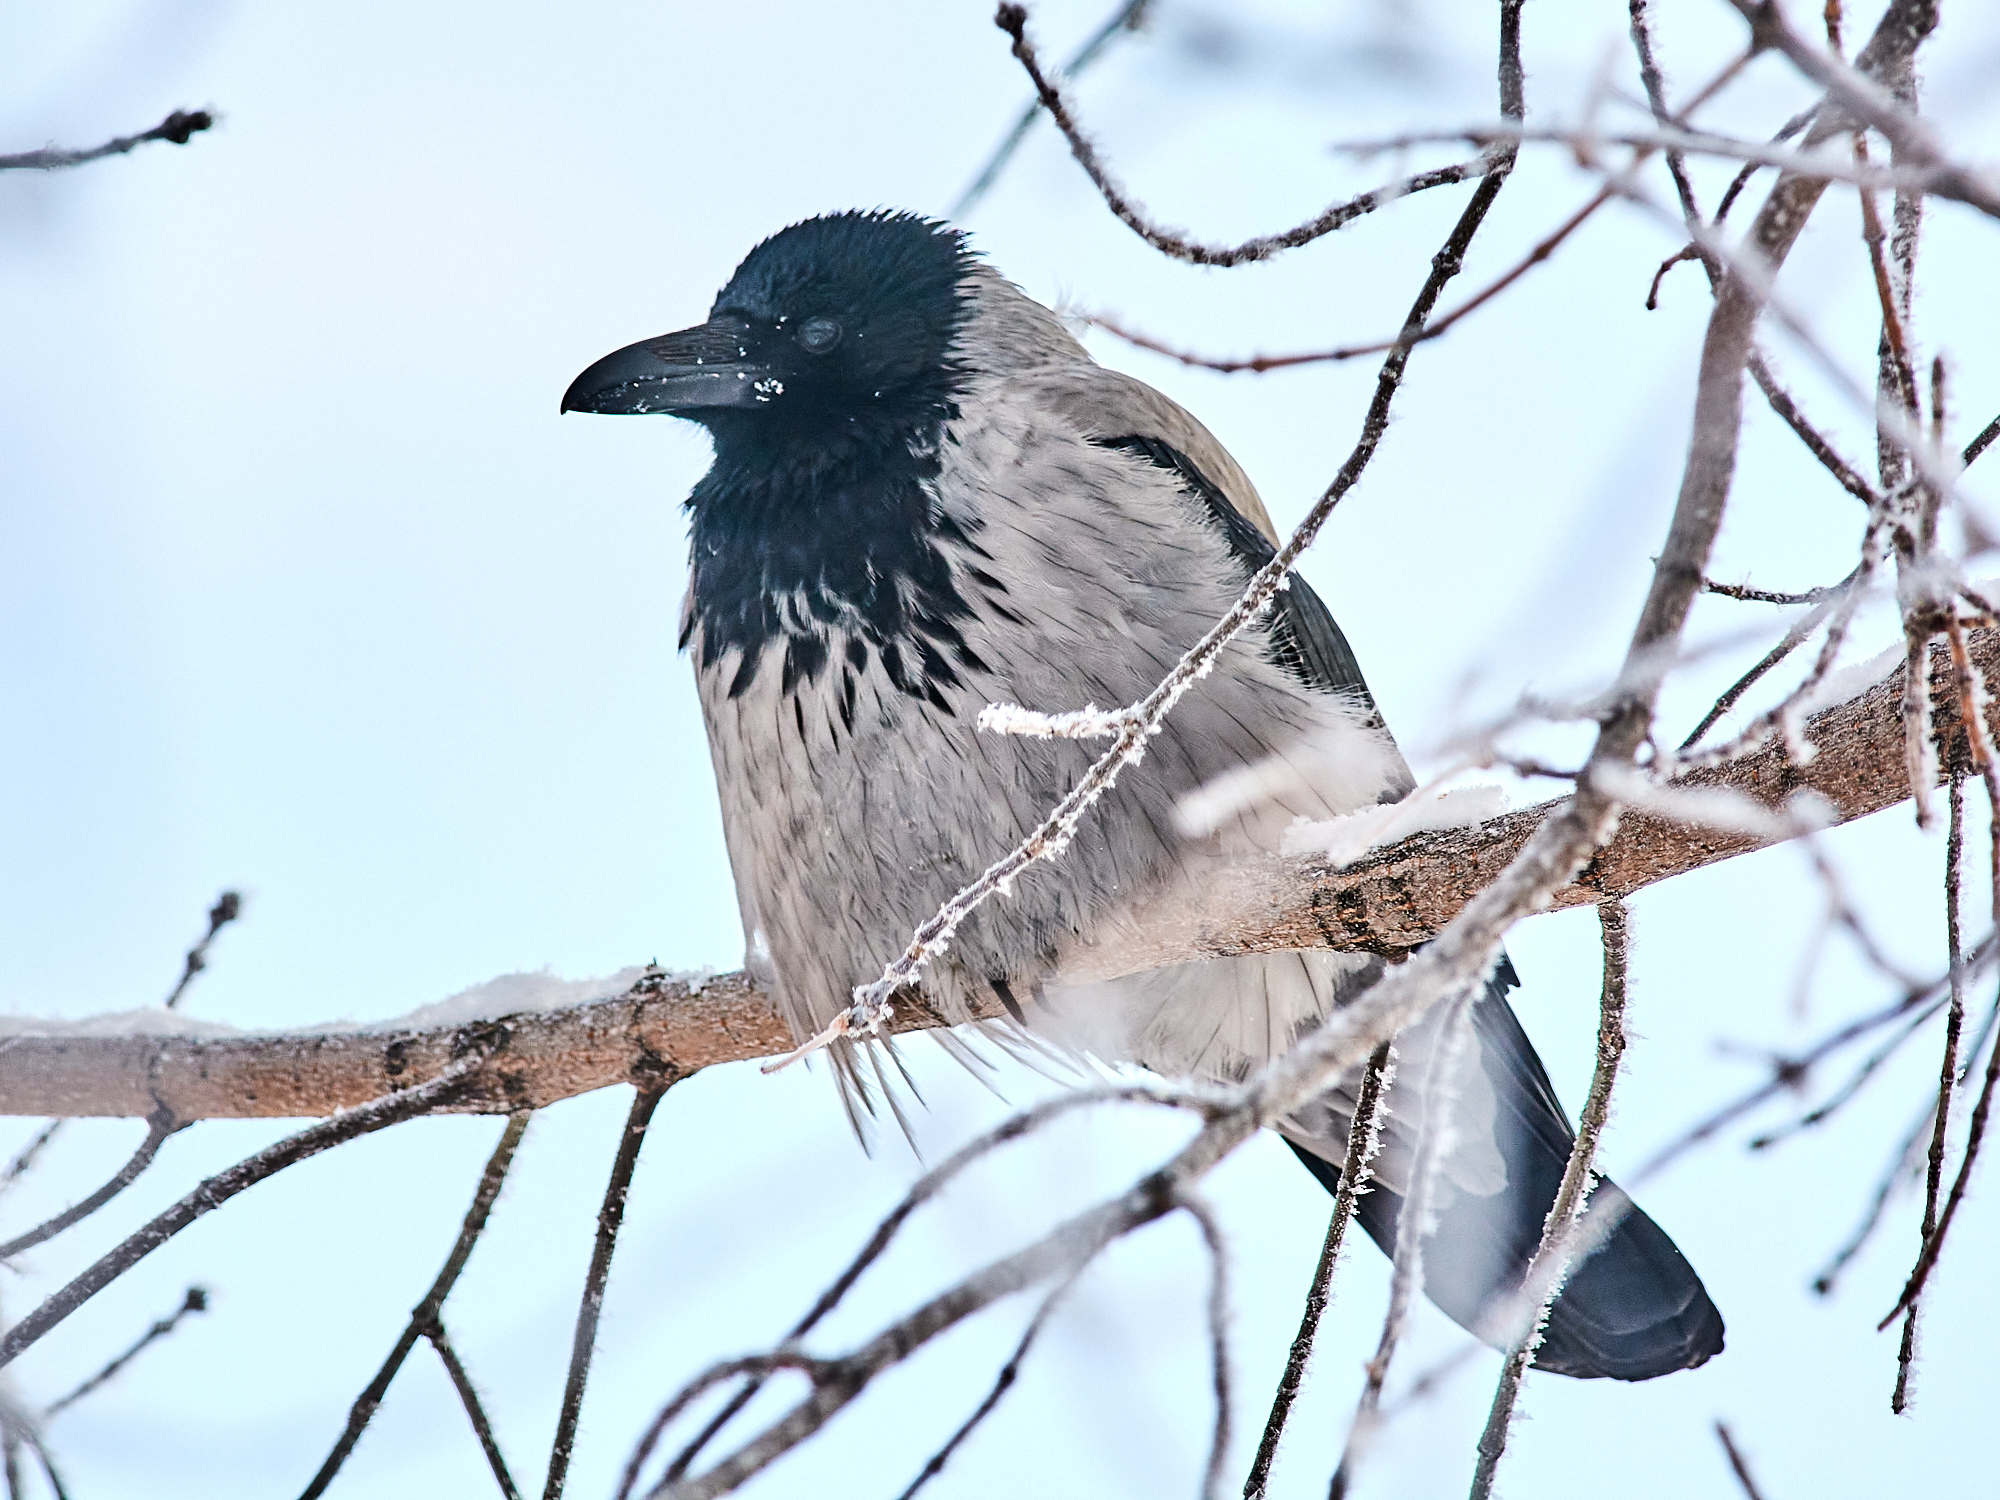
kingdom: Animalia
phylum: Chordata
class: Aves
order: Passeriformes
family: Corvidae
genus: Corvus
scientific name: Corvus cornix
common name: Hooded crow
